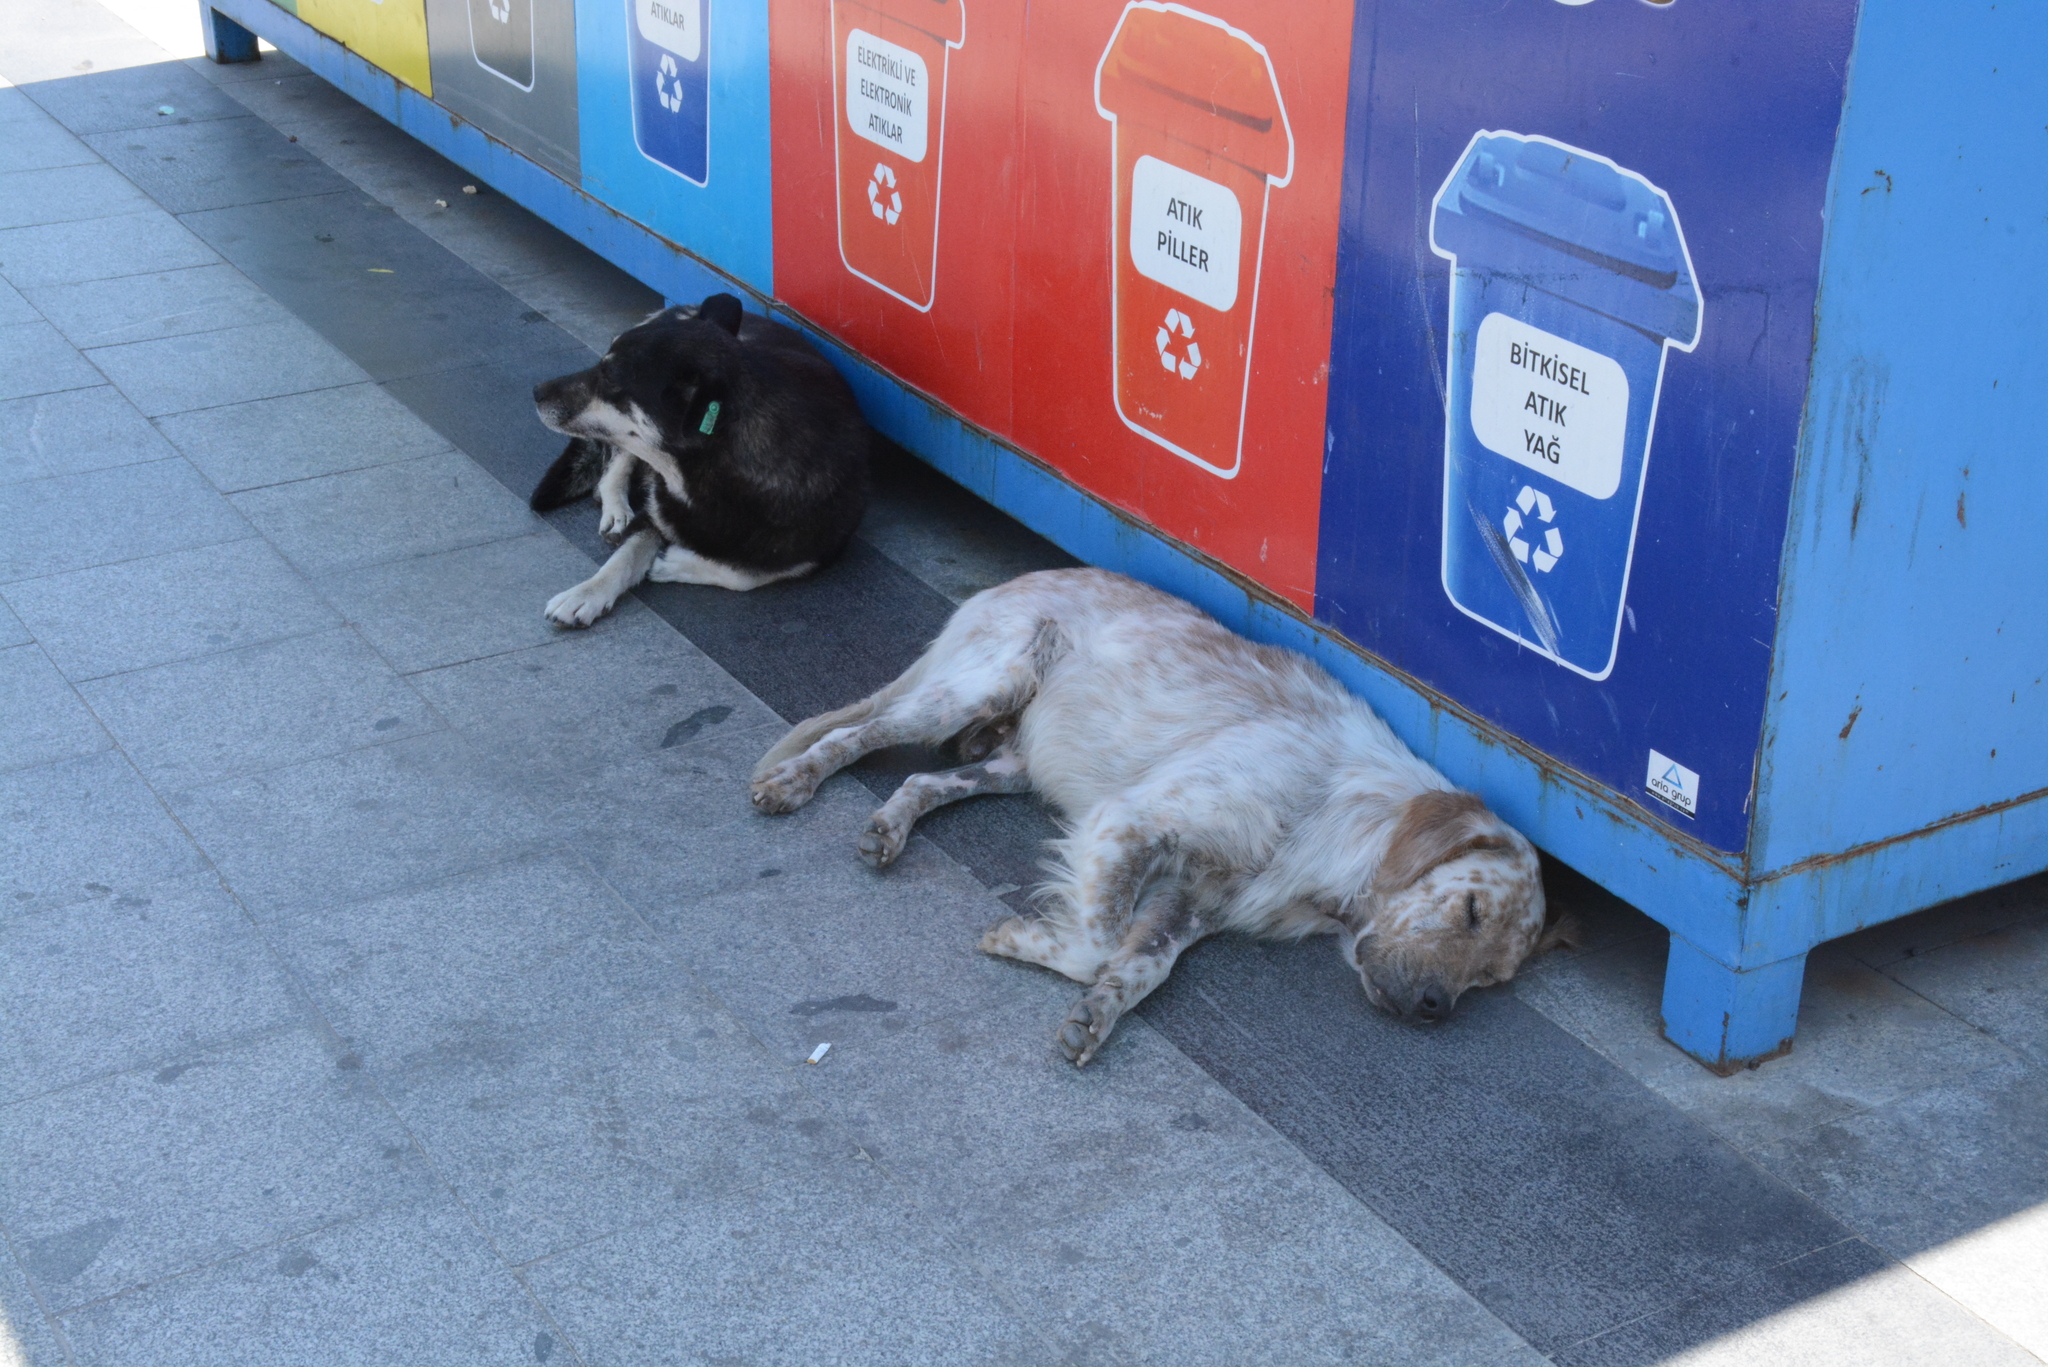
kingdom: Animalia
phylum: Chordata
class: Mammalia
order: Carnivora
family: Canidae
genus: Canis
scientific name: Canis lupus
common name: Gray wolf
